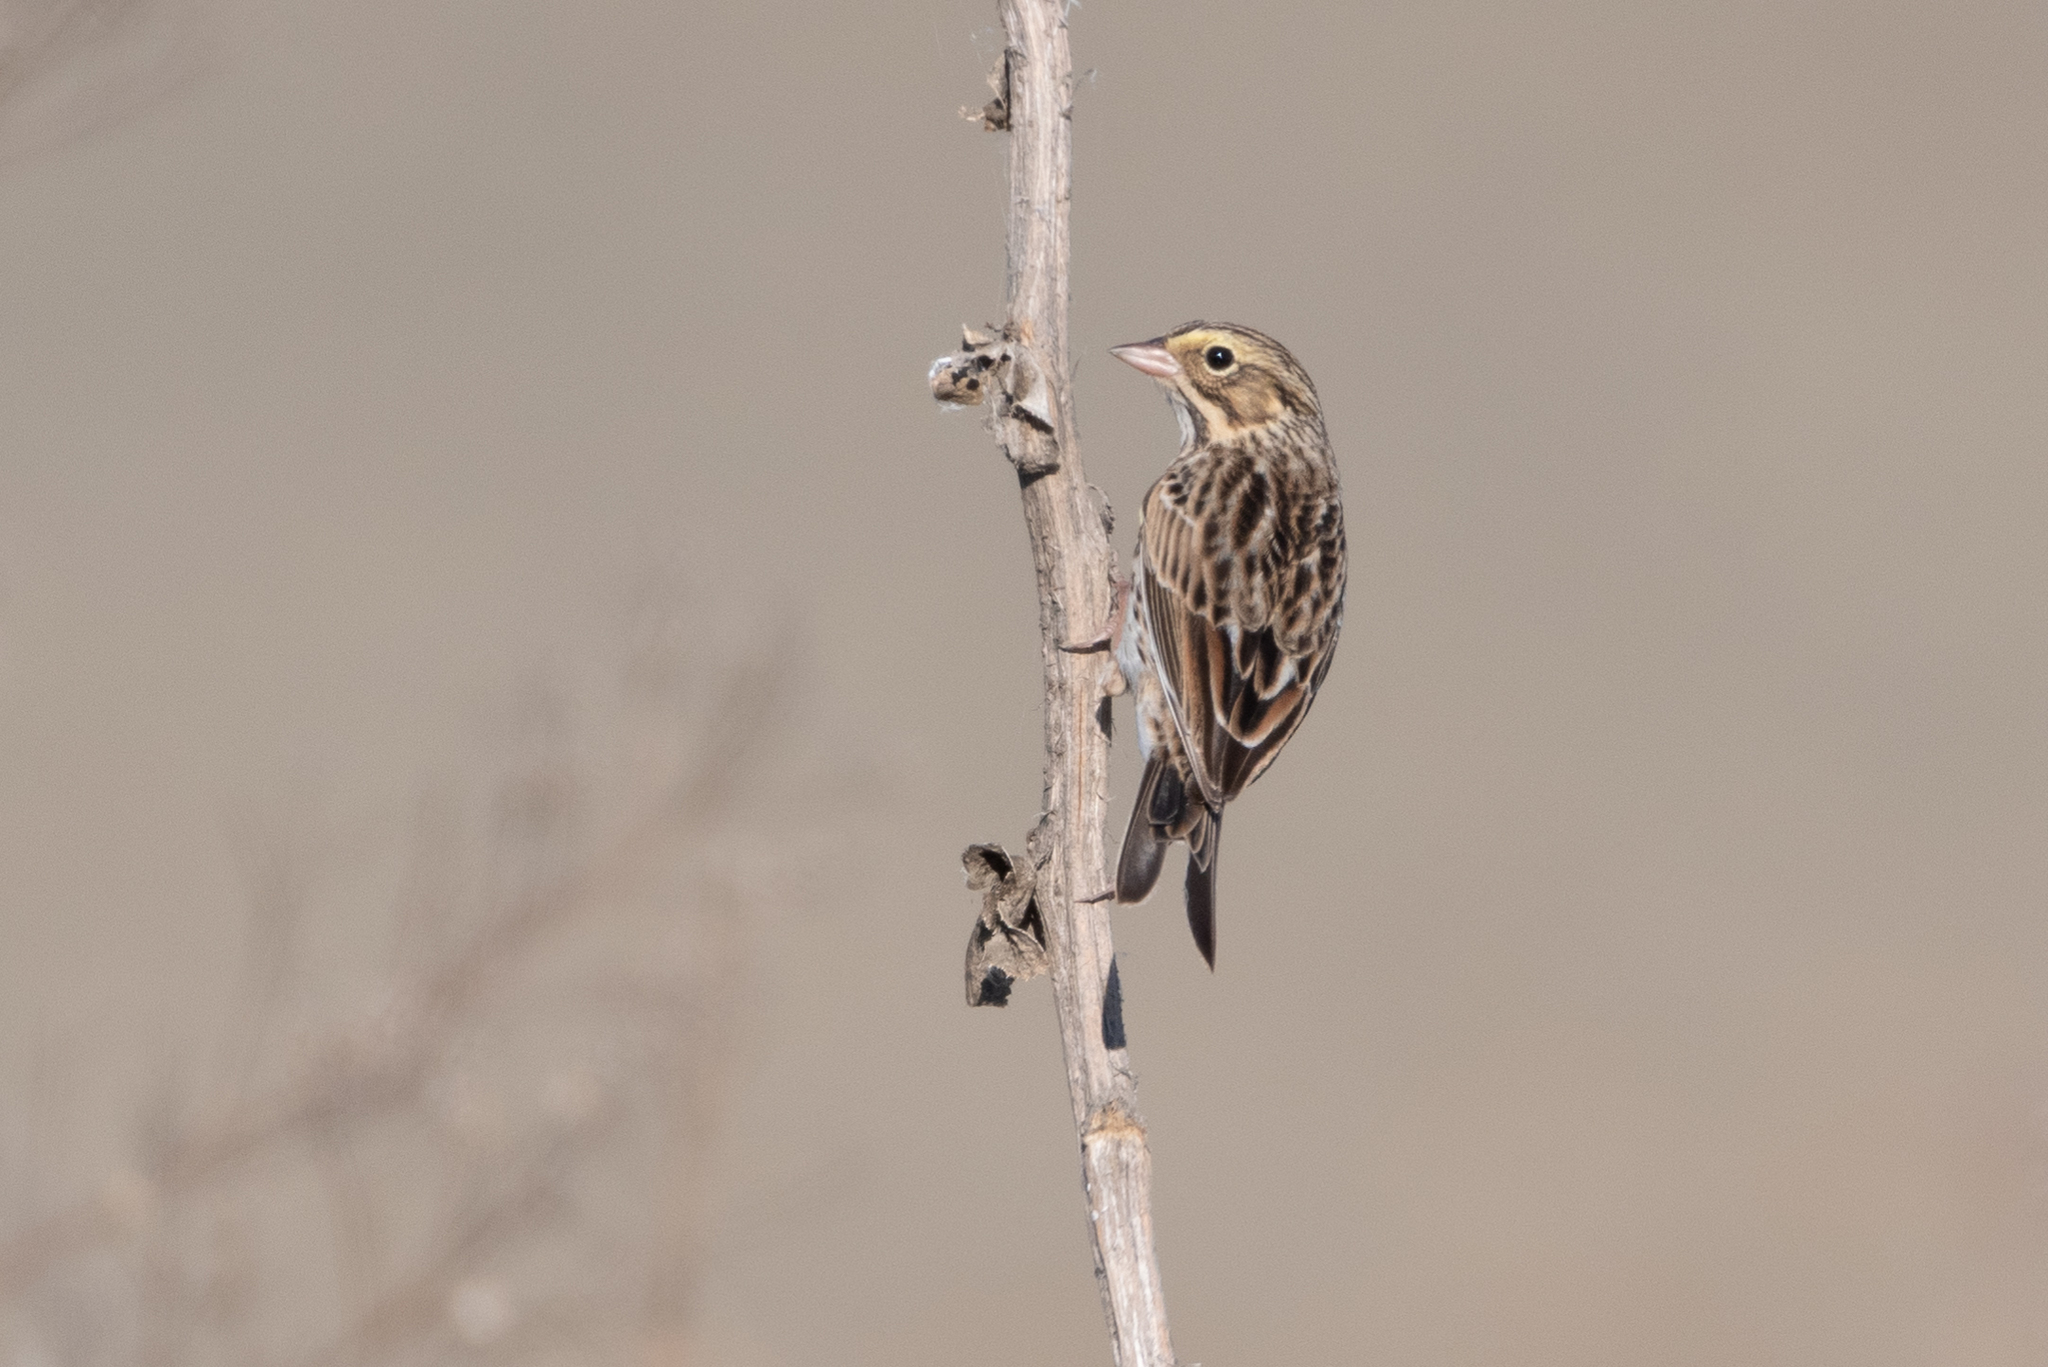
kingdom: Animalia
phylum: Chordata
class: Aves
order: Passeriformes
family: Passerellidae
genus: Passerculus
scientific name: Passerculus sandwichensis
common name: Savannah sparrow
